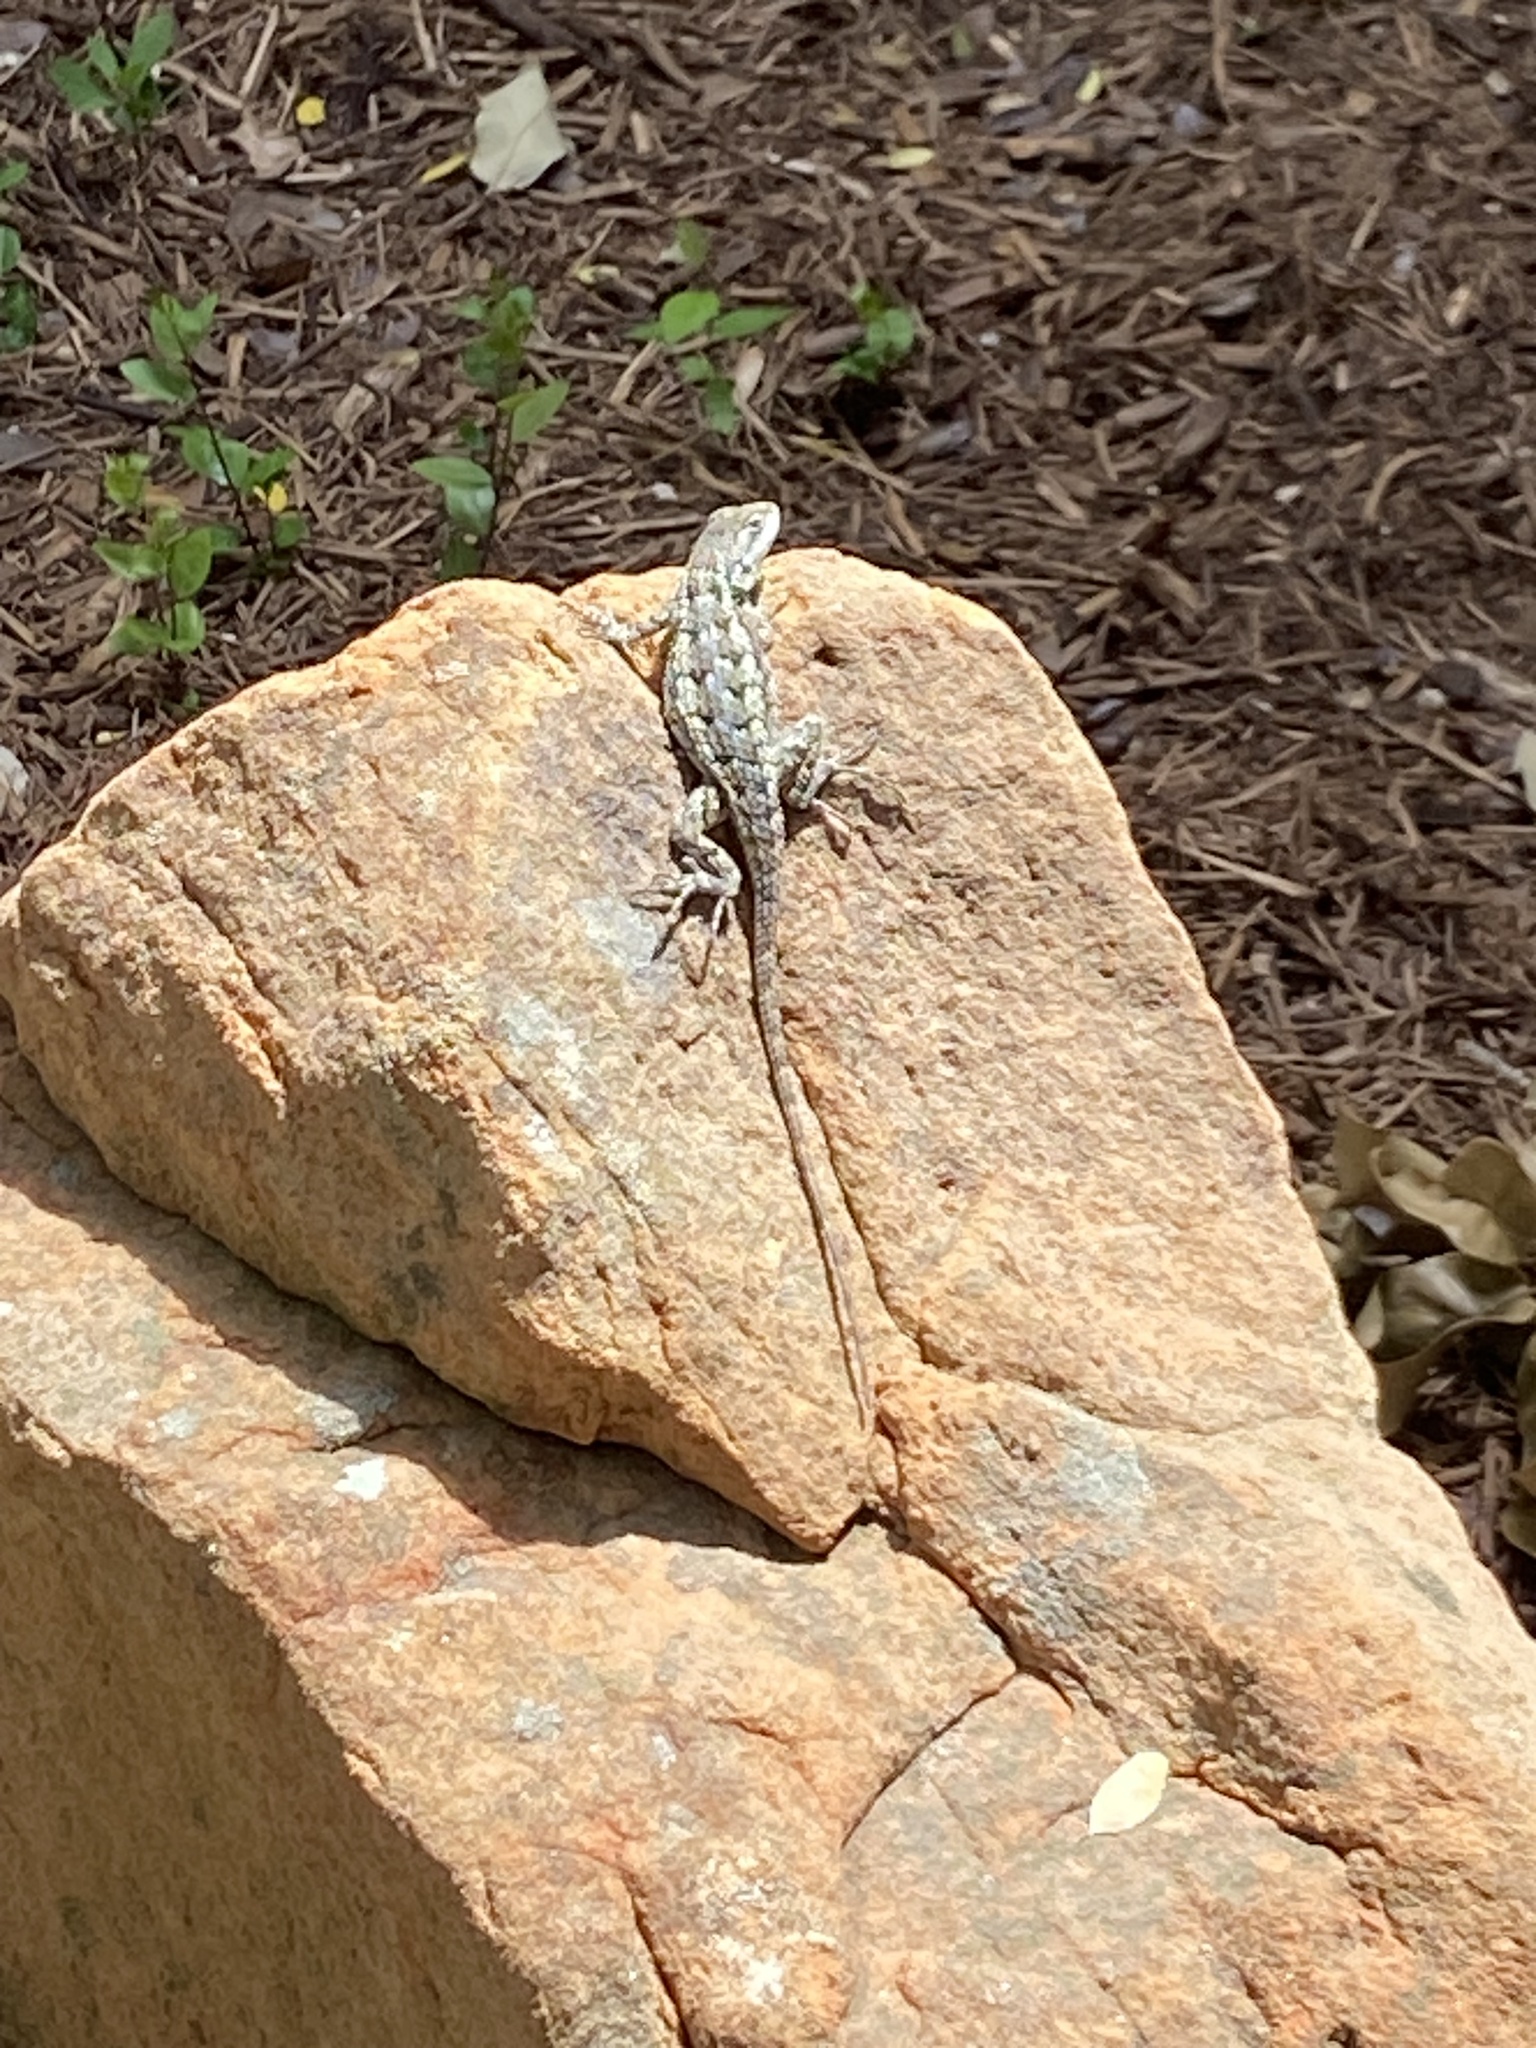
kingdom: Animalia
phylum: Chordata
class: Squamata
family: Phrynosomatidae
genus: Sceloporus
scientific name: Sceloporus olivaceus
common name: Texas spiny lizard
